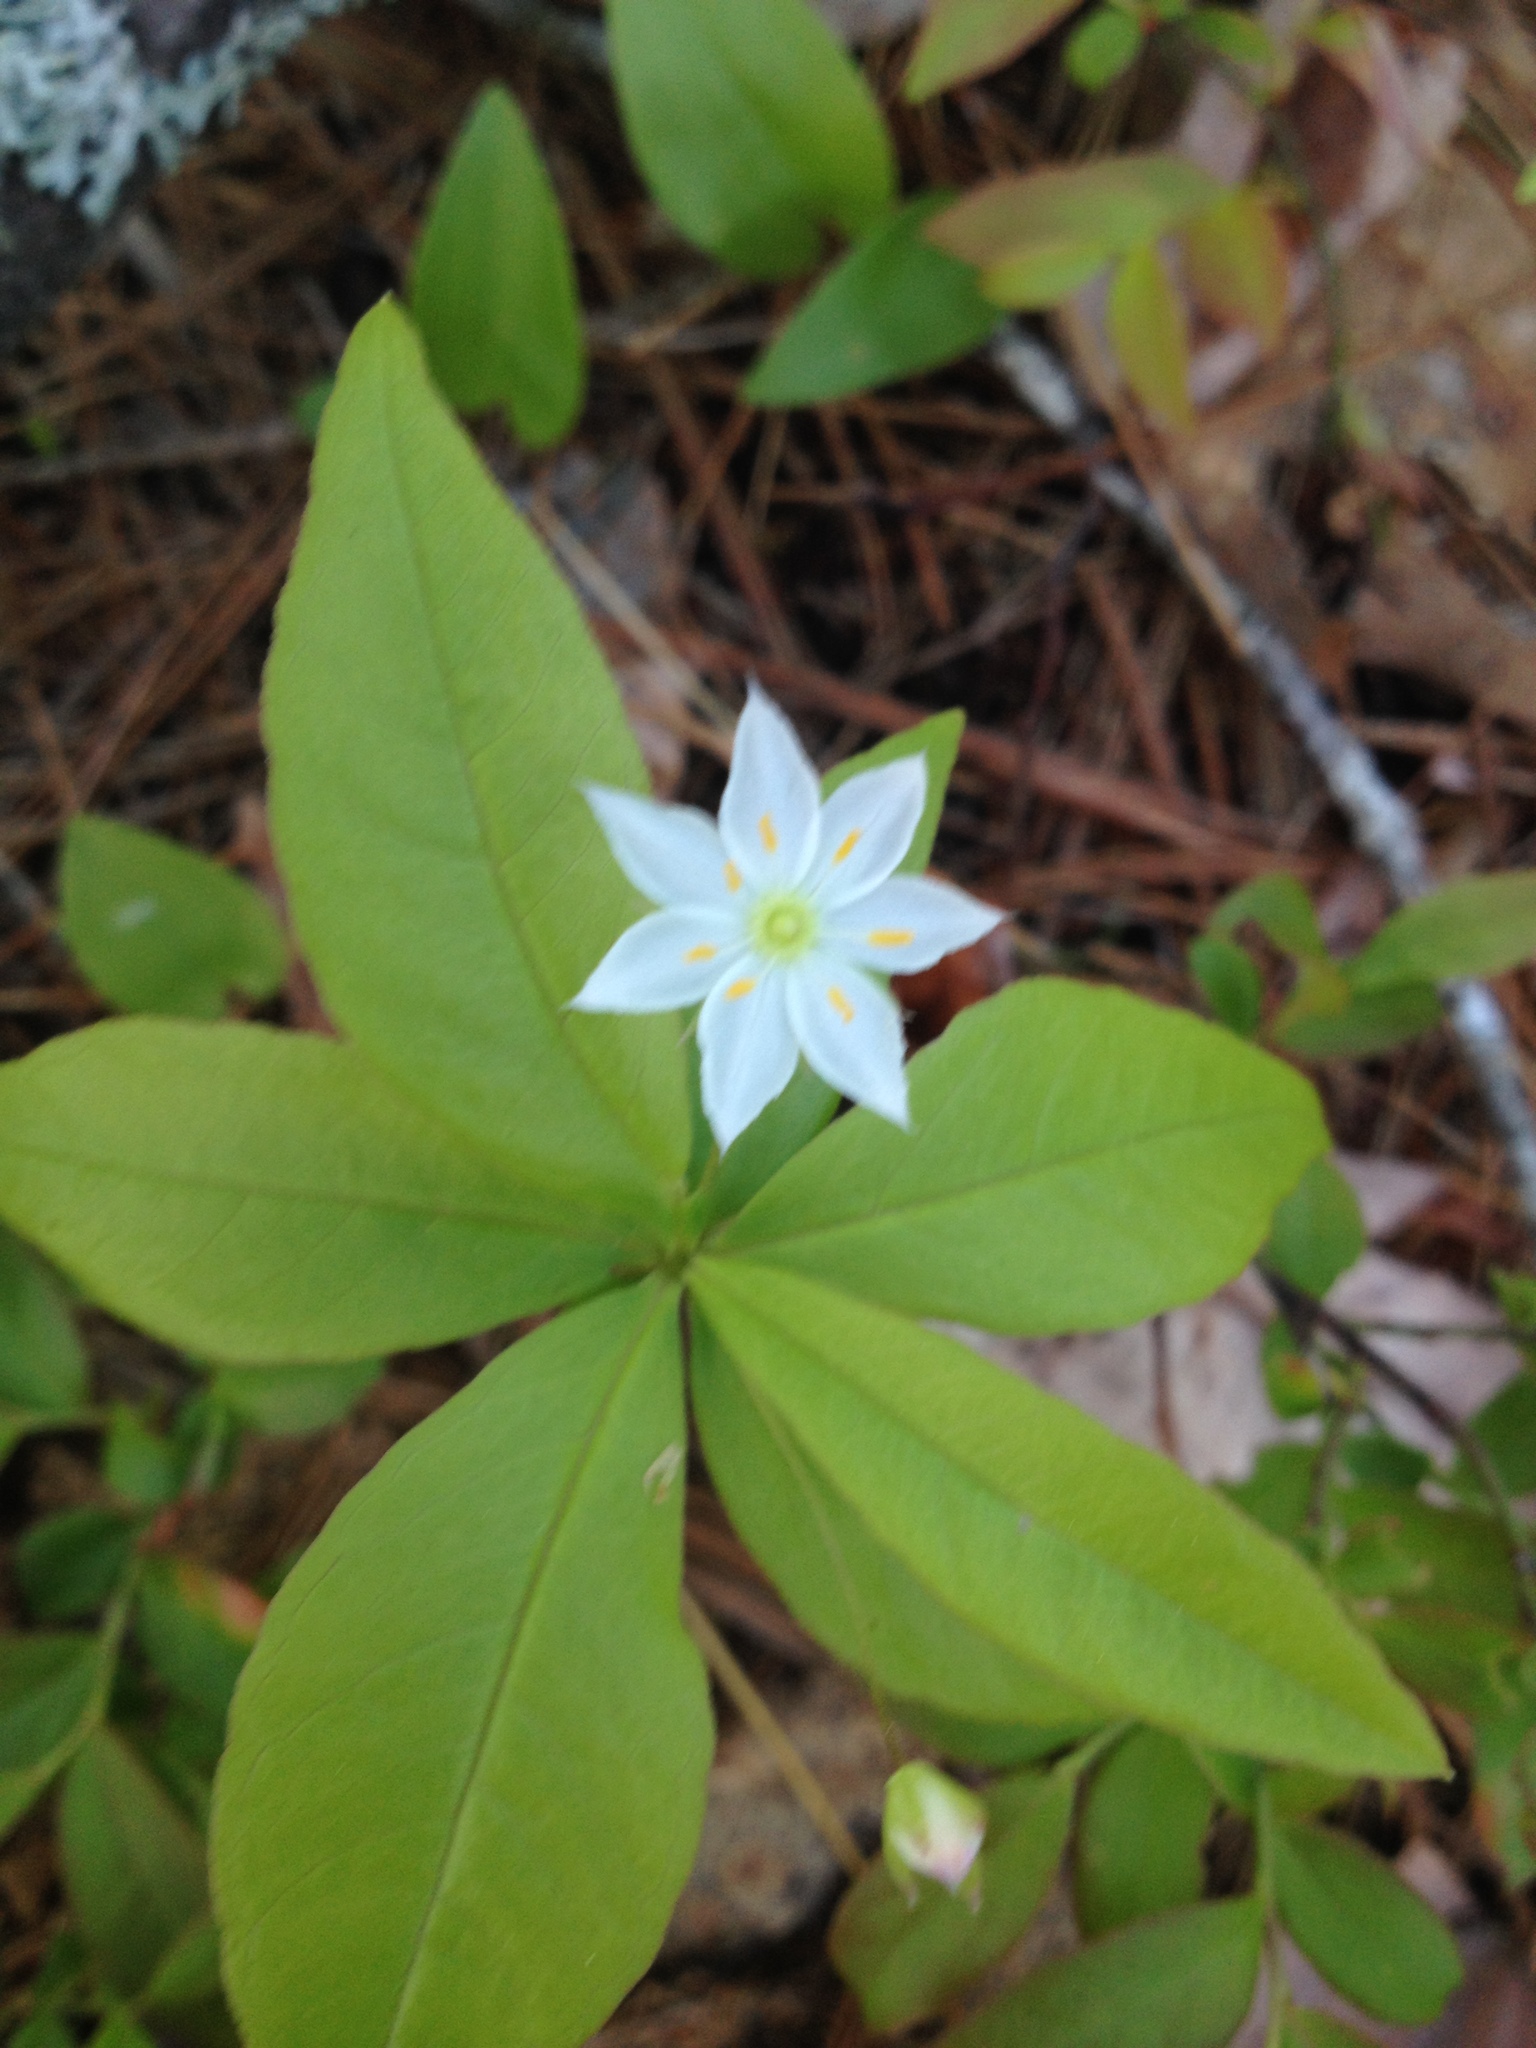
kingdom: Plantae
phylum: Tracheophyta
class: Magnoliopsida
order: Ericales
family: Primulaceae
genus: Lysimachia
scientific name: Lysimachia borealis
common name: American starflower
